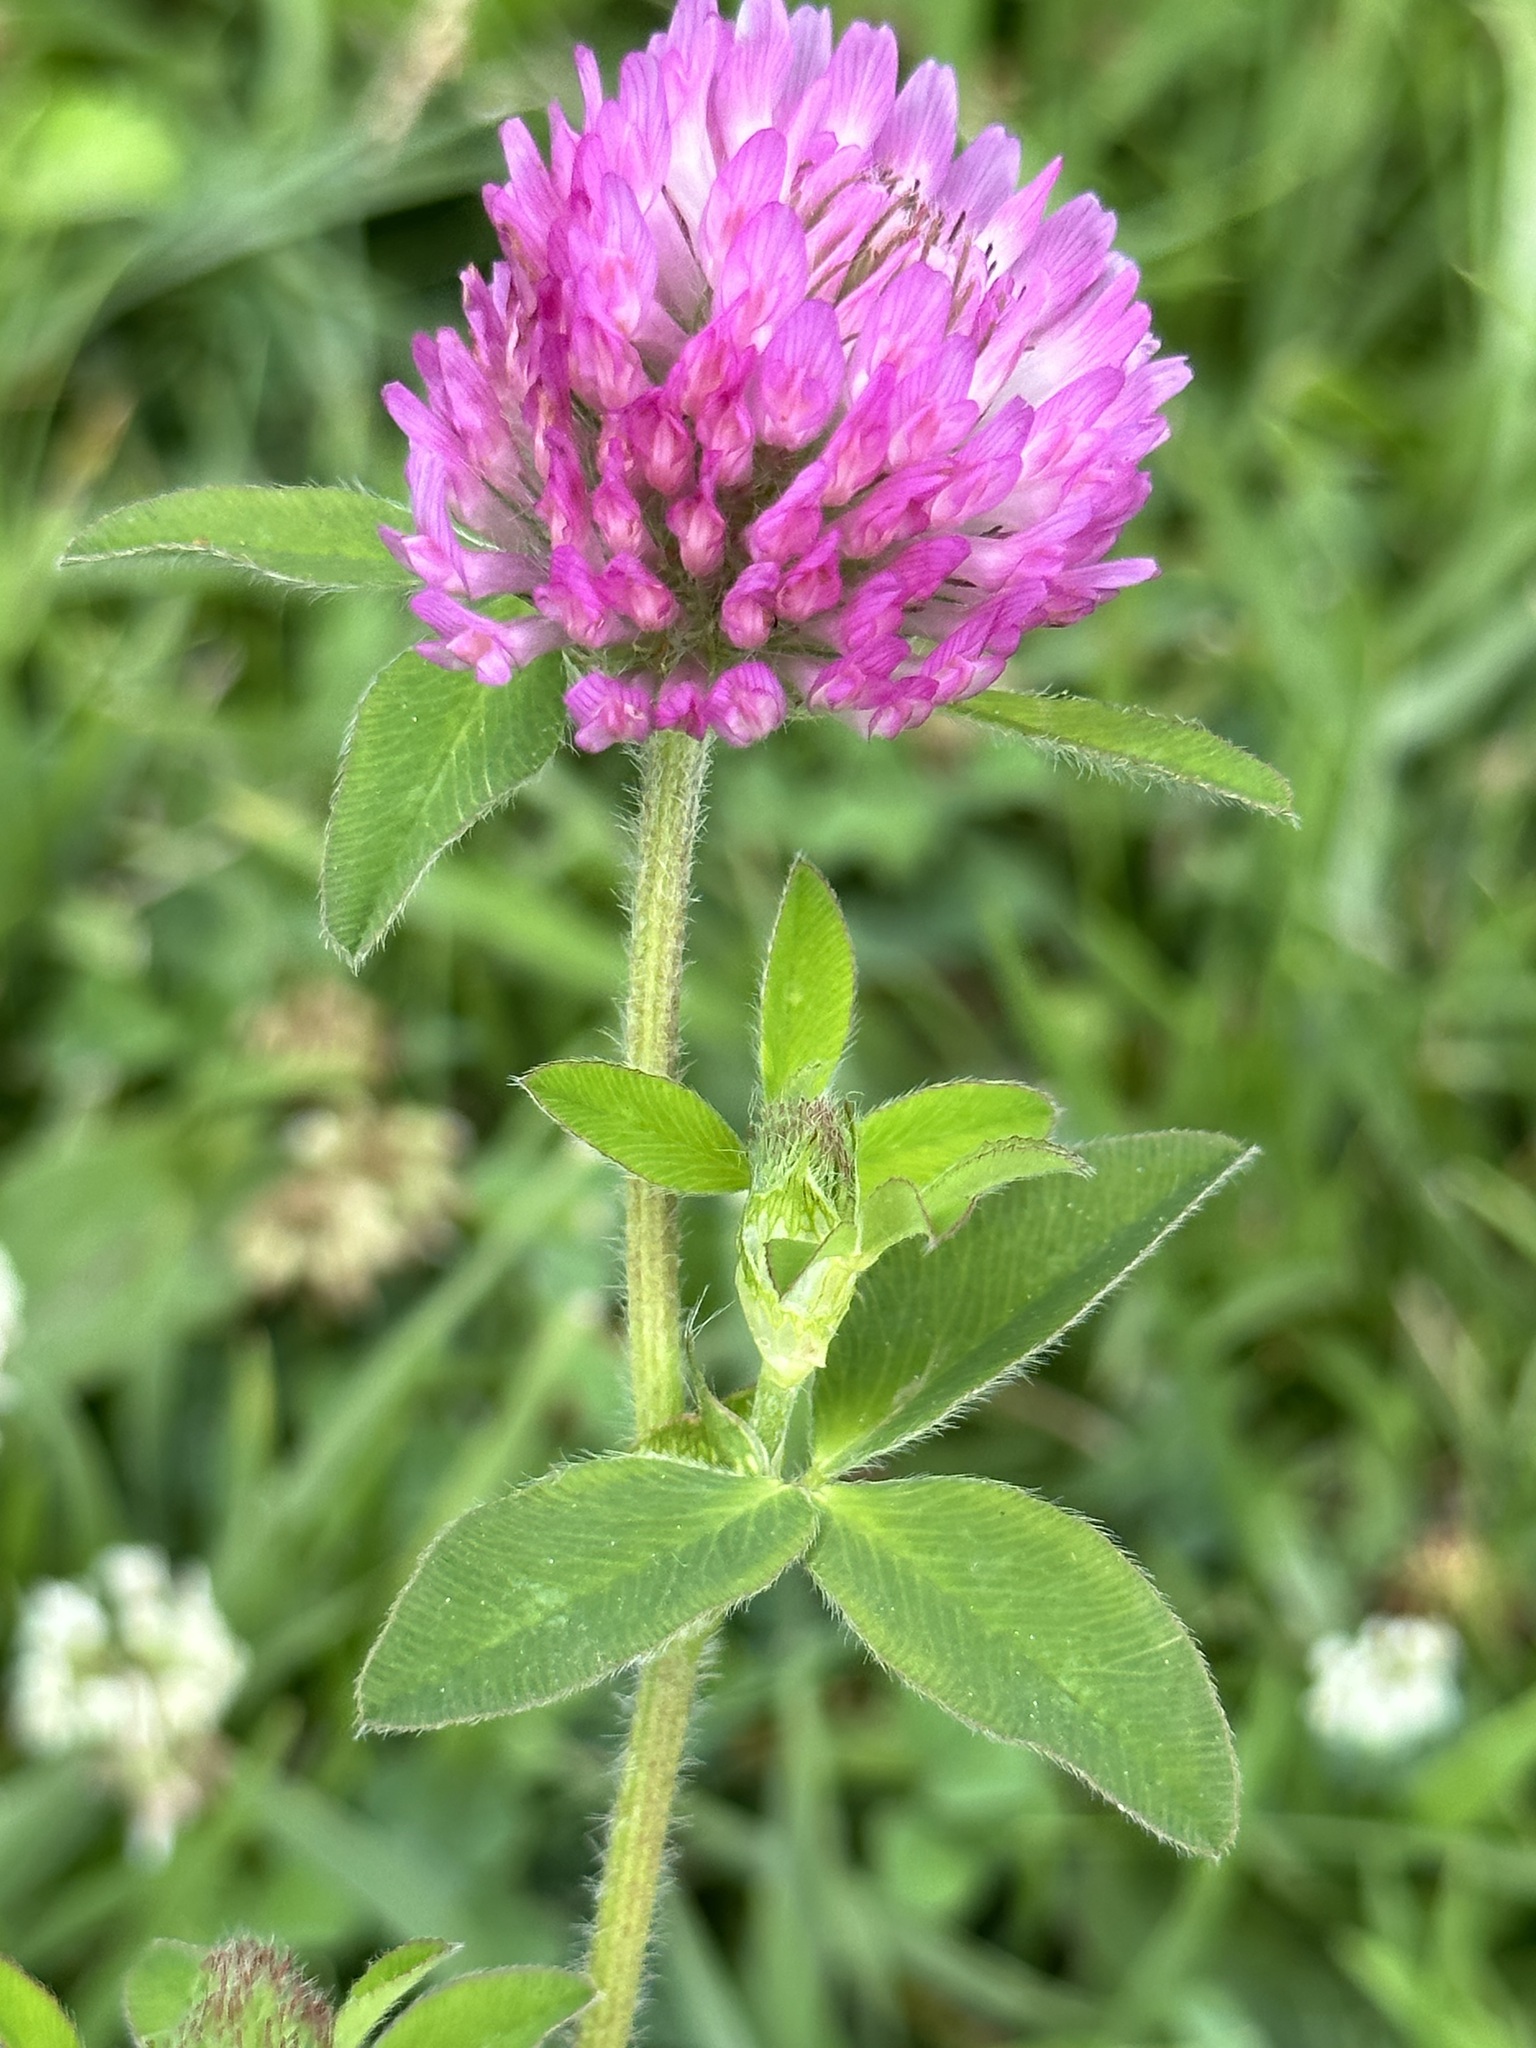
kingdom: Plantae
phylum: Tracheophyta
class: Magnoliopsida
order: Fabales
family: Fabaceae
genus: Trifolium
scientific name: Trifolium pratense
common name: Red clover
